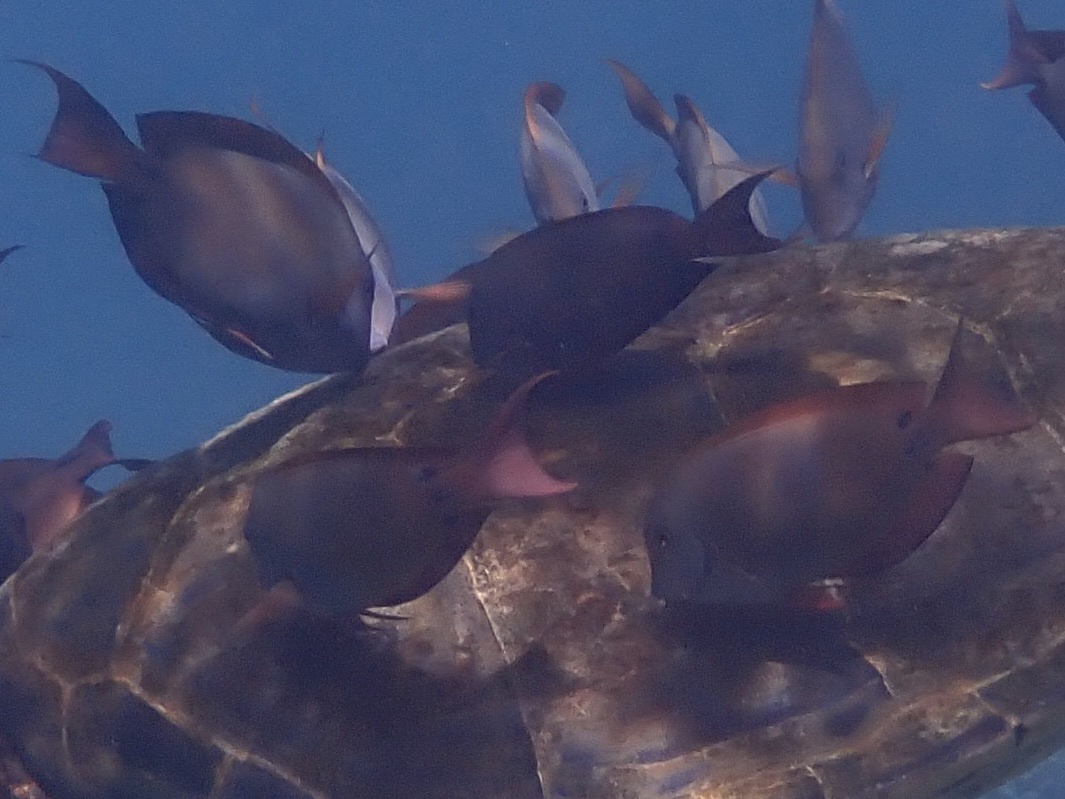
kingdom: Animalia
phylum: Chordata
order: Perciformes
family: Acanthuridae
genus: Acanthurus
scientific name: Acanthurus nigrofuscus
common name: Blackspot surgeonfish
